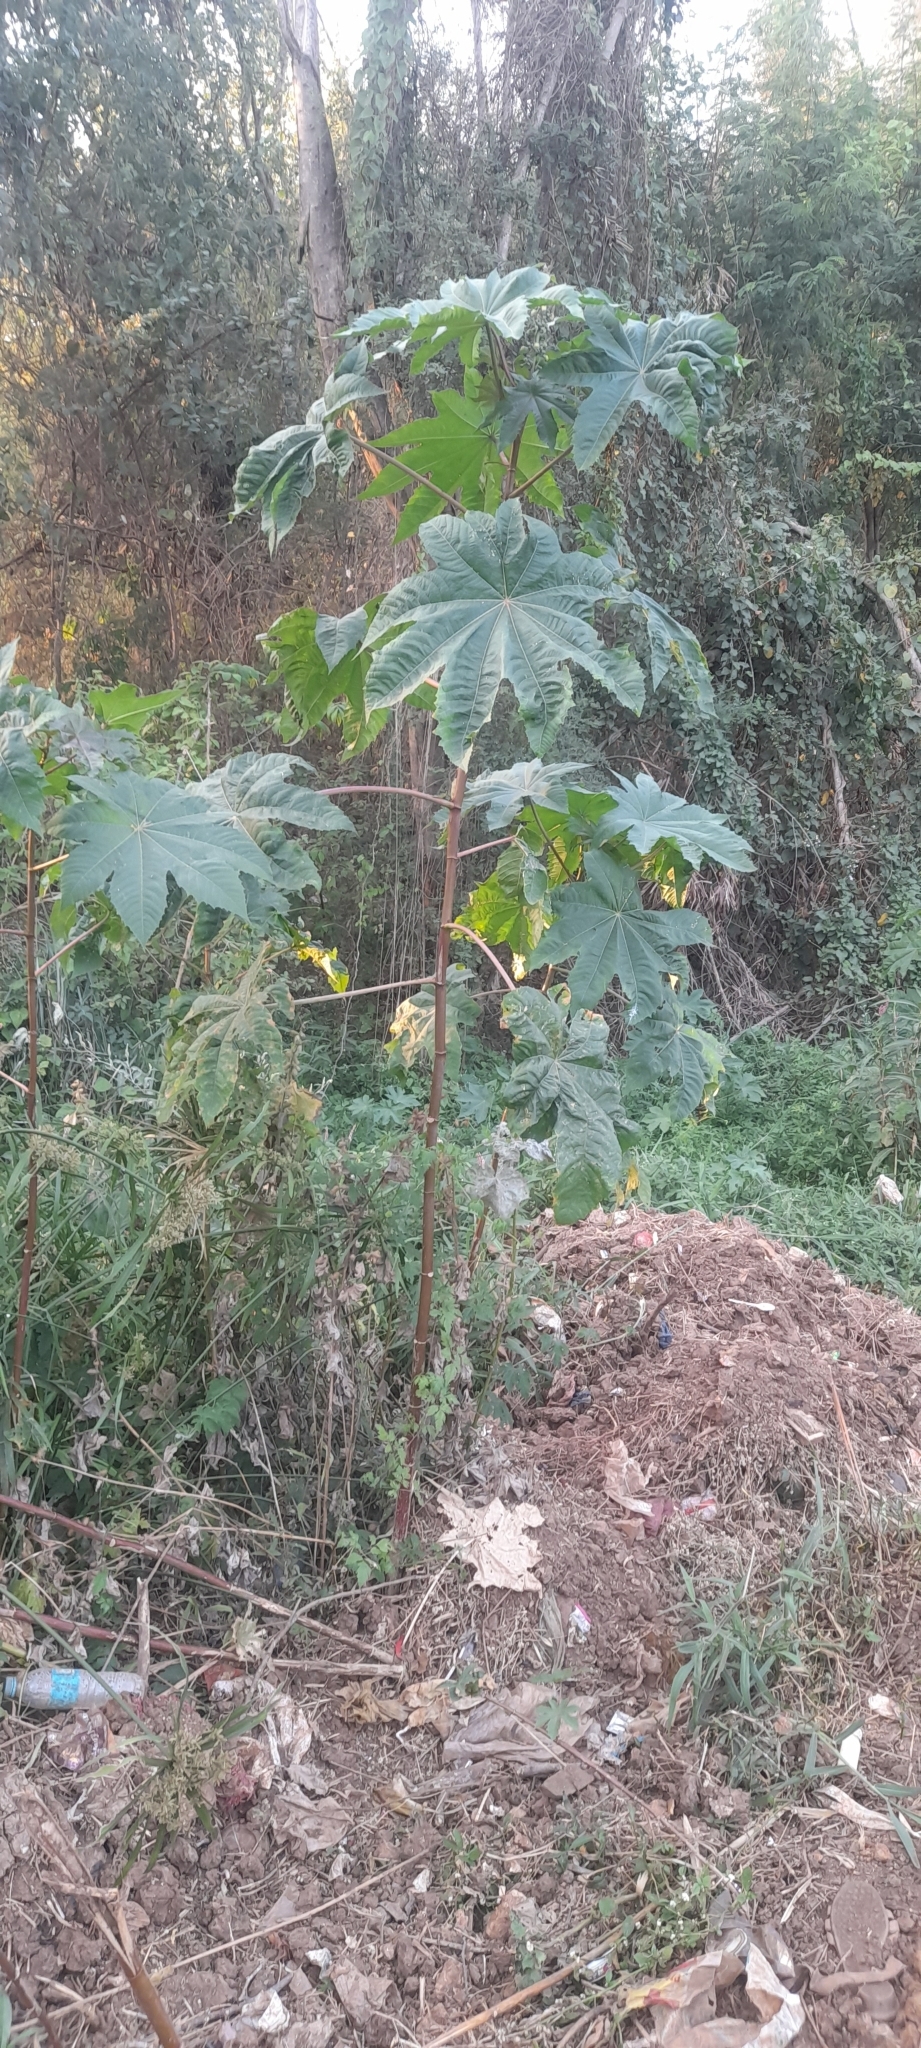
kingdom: Plantae
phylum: Tracheophyta
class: Magnoliopsida
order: Malpighiales
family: Euphorbiaceae
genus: Ricinus
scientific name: Ricinus communis
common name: Castor-oil-plant
